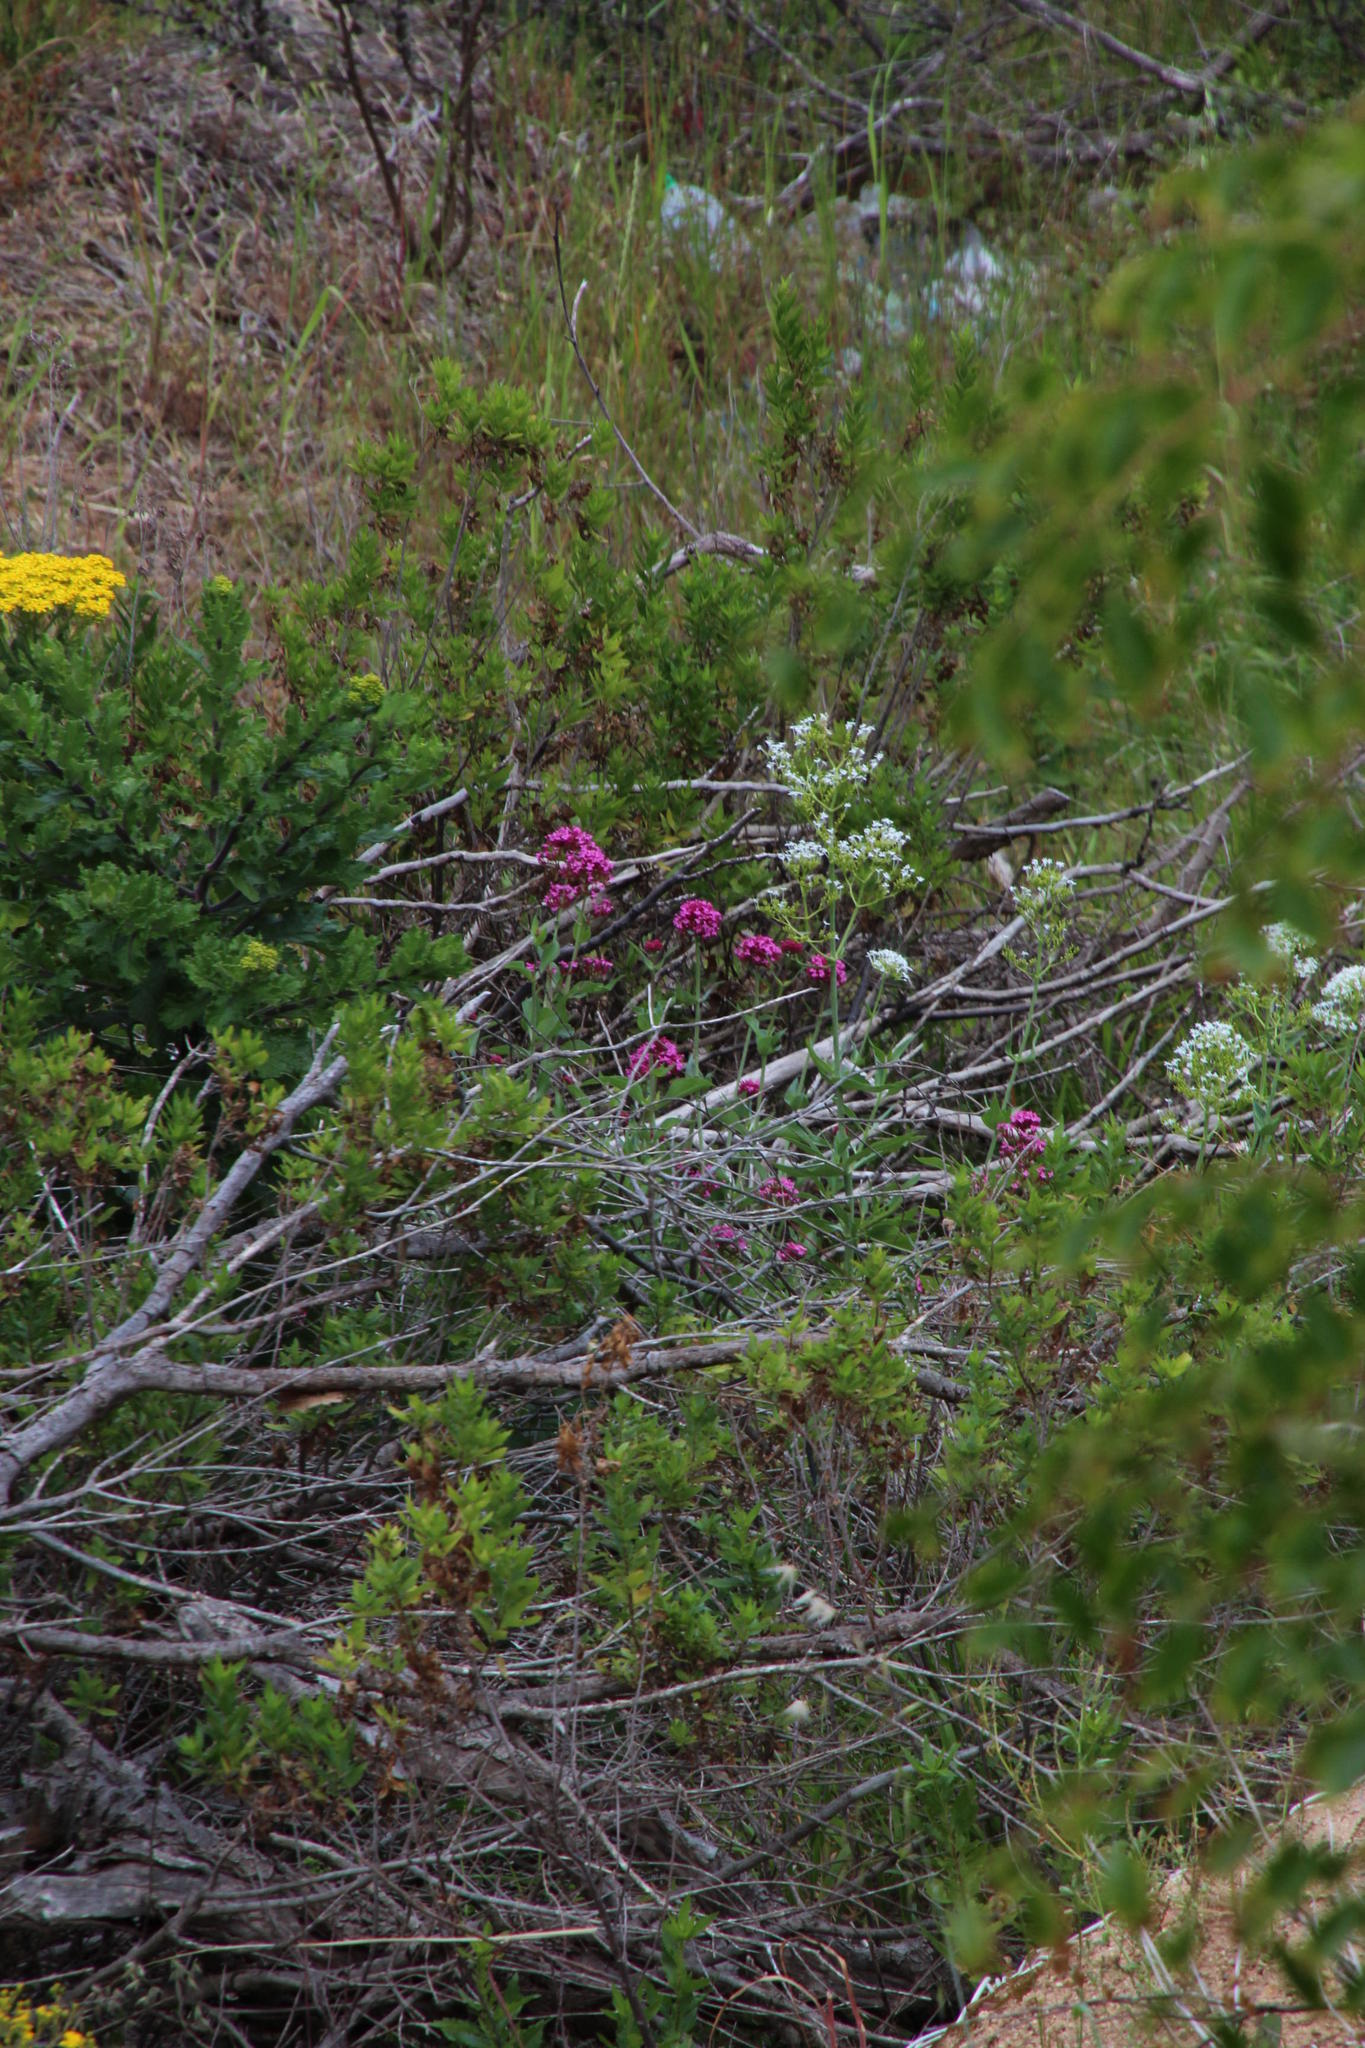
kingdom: Plantae
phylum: Tracheophyta
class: Magnoliopsida
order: Dipsacales
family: Caprifoliaceae
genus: Centranthus
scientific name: Centranthus ruber
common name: Red valerian
